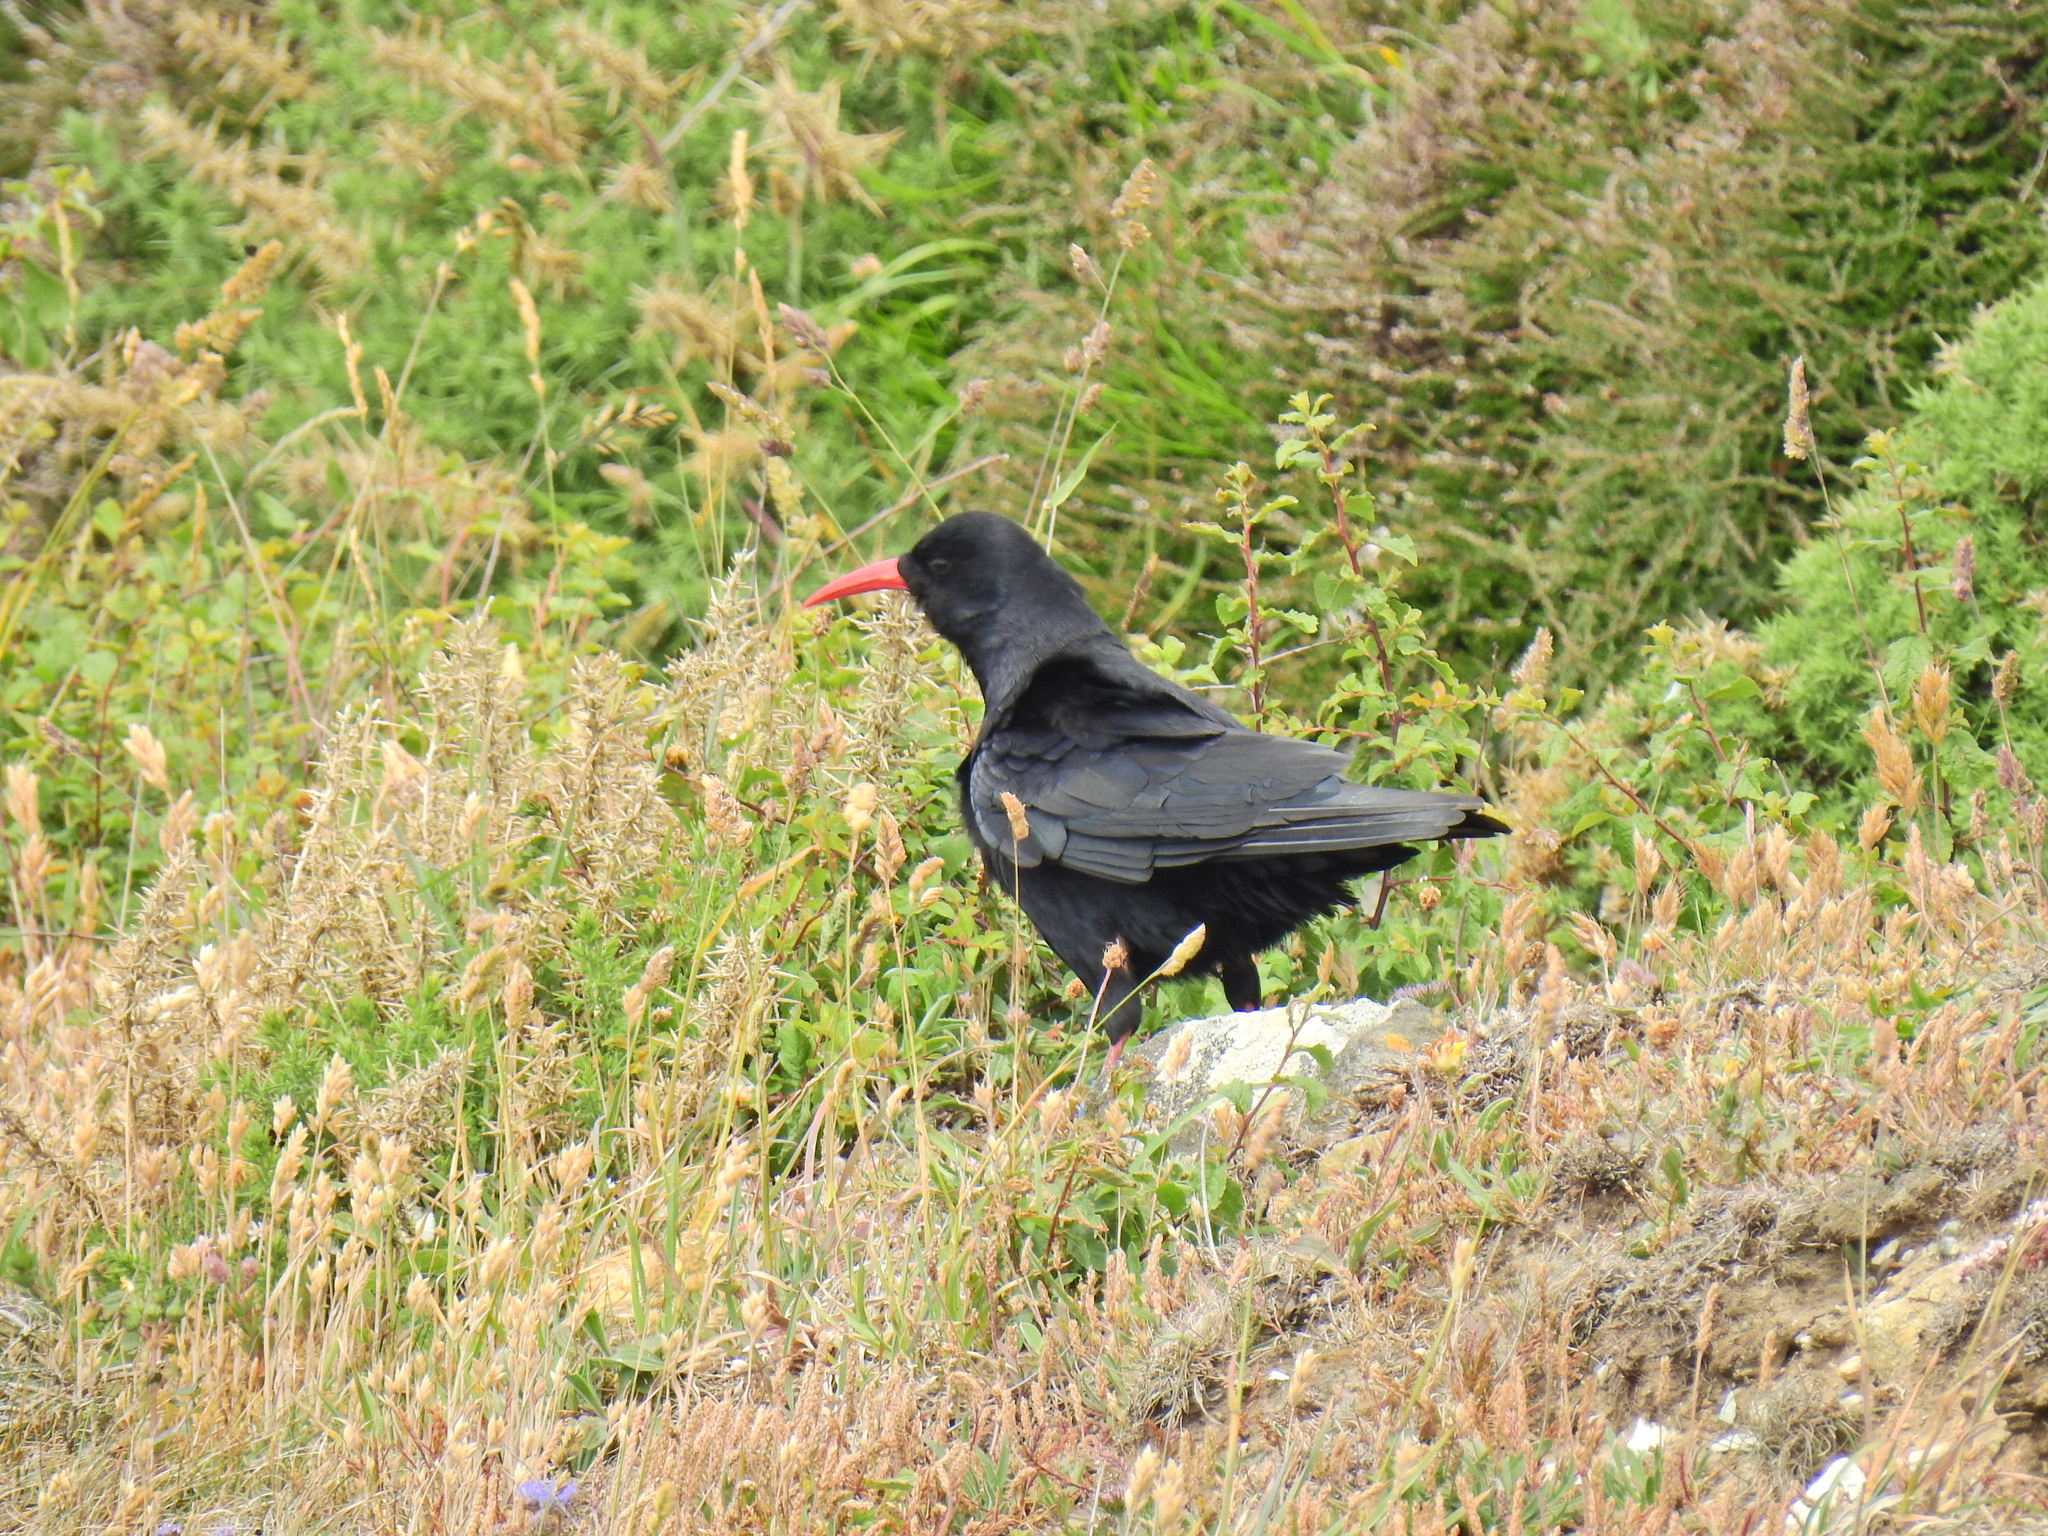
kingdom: Animalia
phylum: Chordata
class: Aves
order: Passeriformes
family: Corvidae
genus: Pyrrhocorax
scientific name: Pyrrhocorax pyrrhocorax
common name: Red-billed chough
